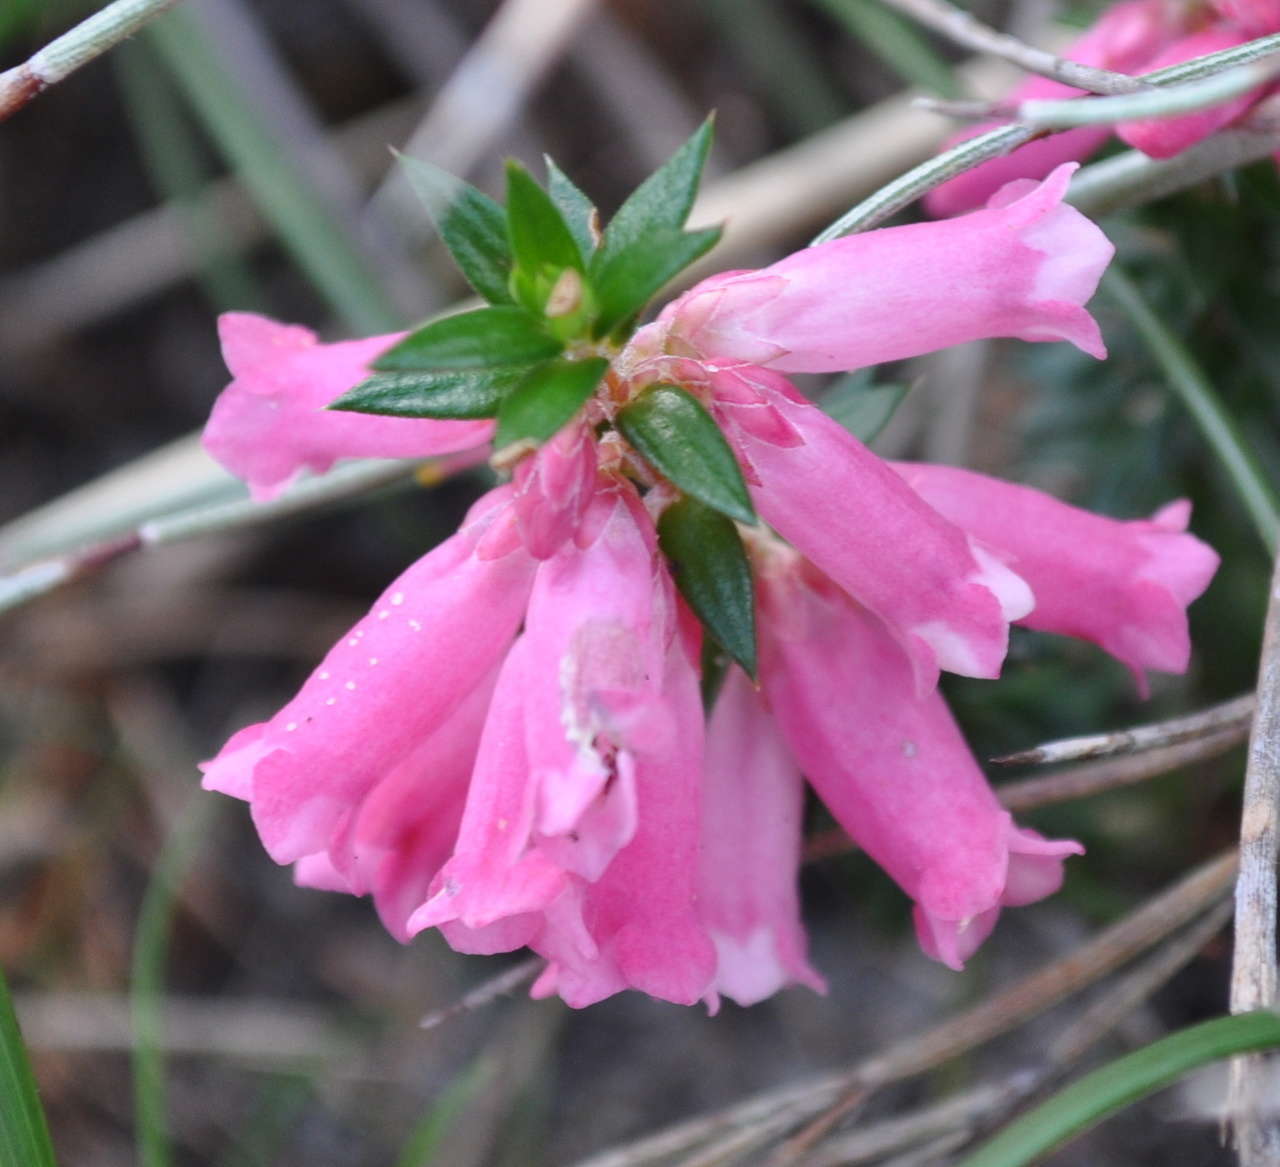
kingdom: Plantae
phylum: Tracheophyta
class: Magnoliopsida
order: Ericales
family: Ericaceae
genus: Epacris
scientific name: Epacris impressa
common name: Common-heath
